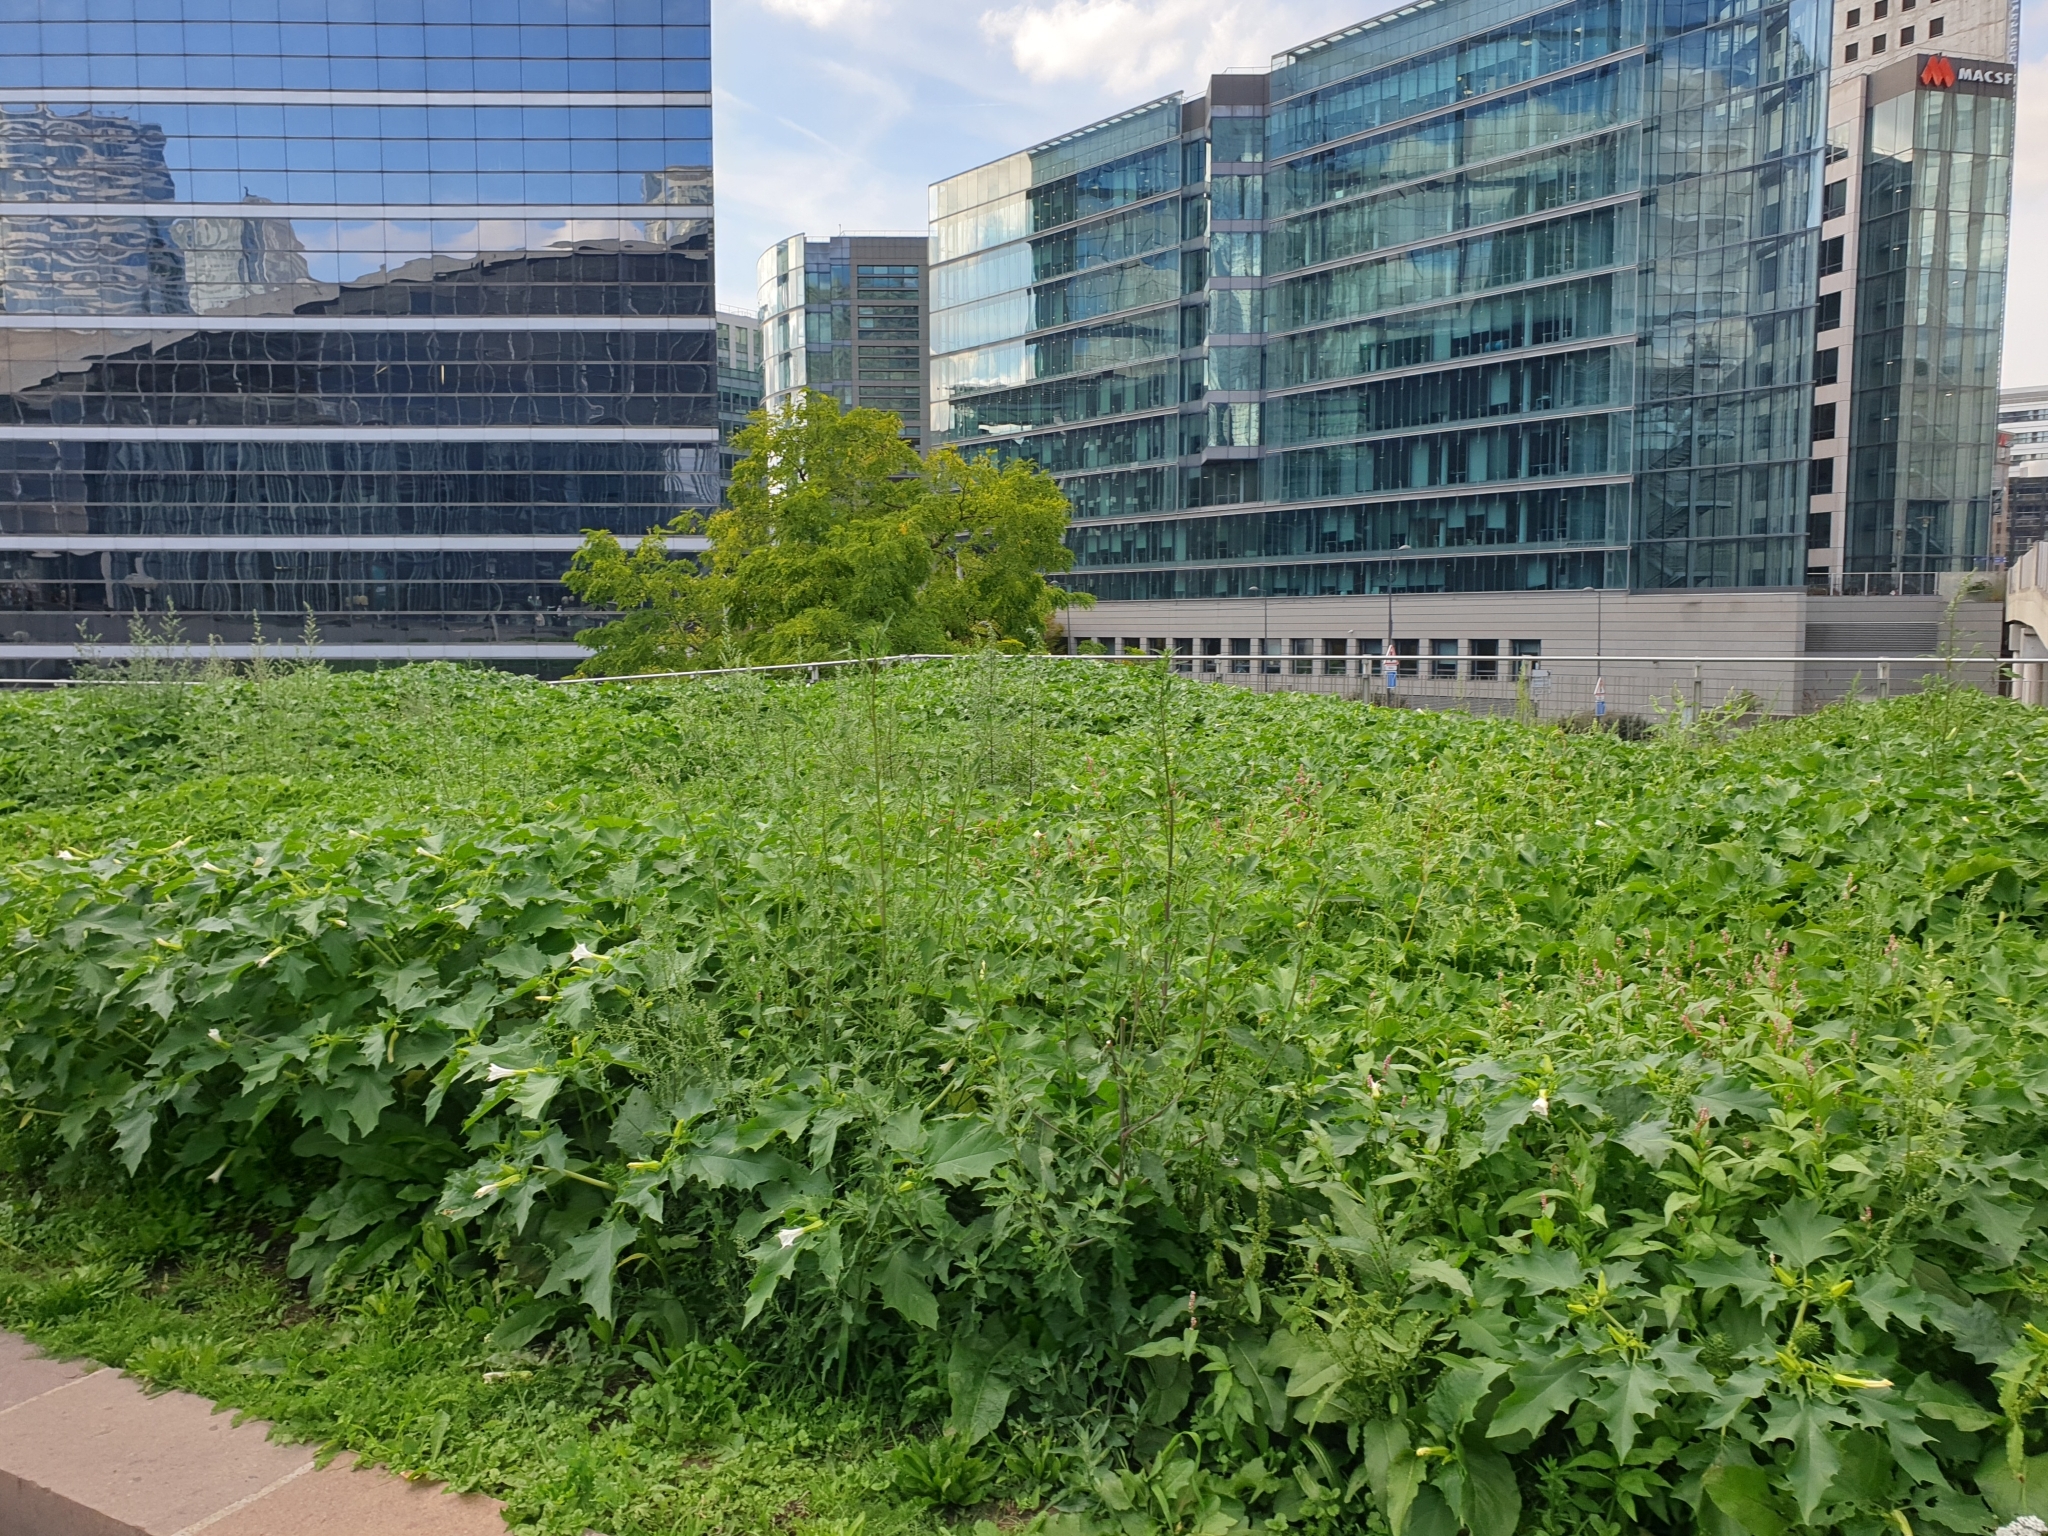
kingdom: Plantae
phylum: Tracheophyta
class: Magnoliopsida
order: Solanales
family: Solanaceae
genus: Datura
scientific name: Datura stramonium
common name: Thorn-apple
